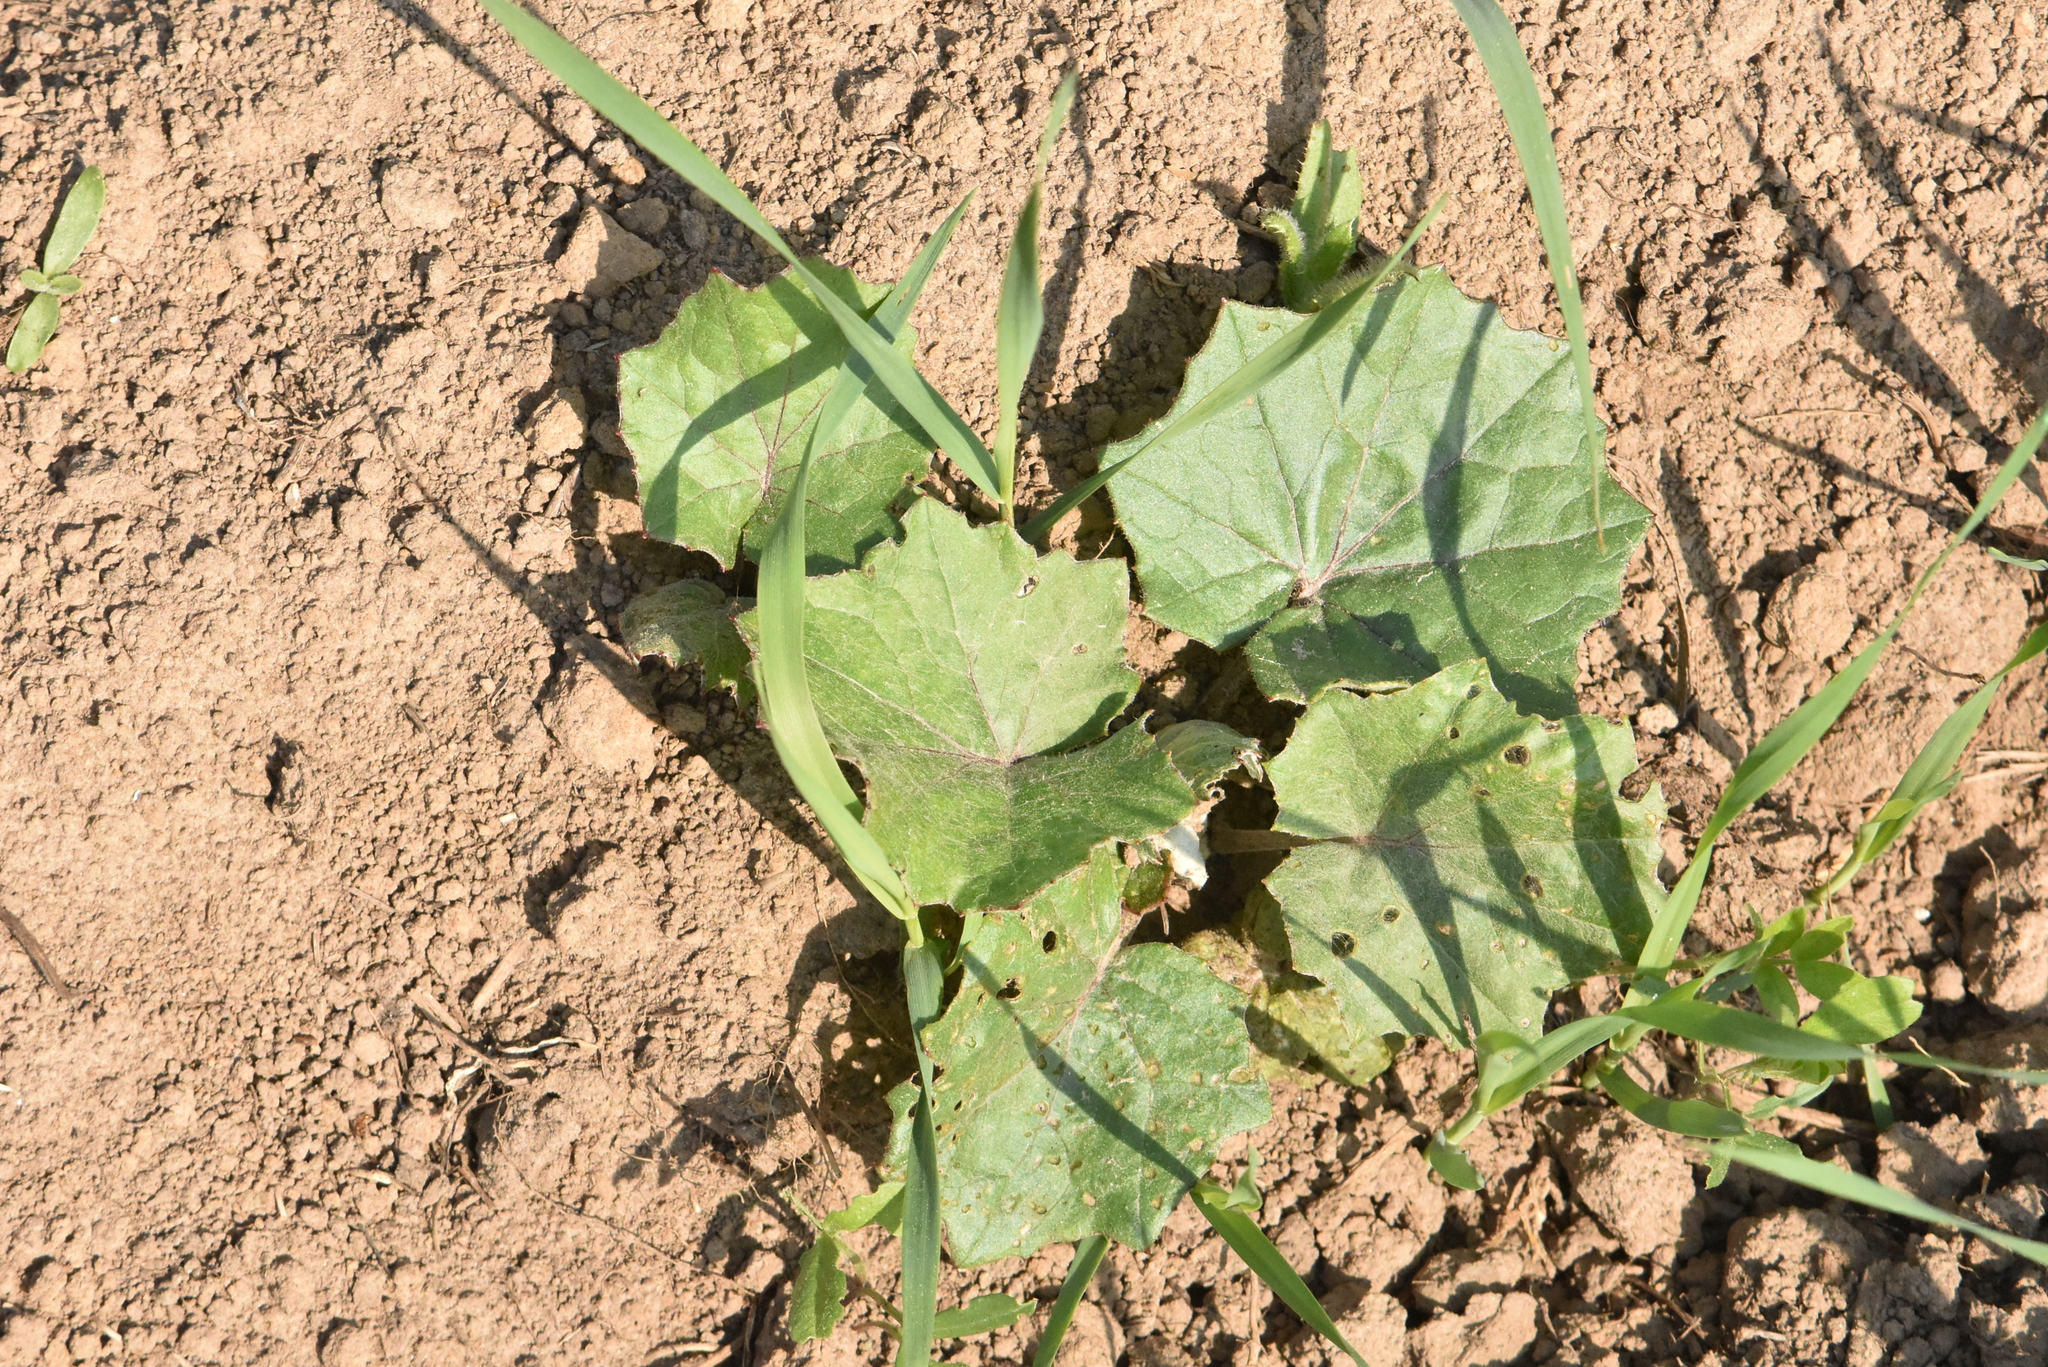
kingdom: Plantae
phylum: Tracheophyta
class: Magnoliopsida
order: Asterales
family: Asteraceae
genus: Tussilago
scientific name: Tussilago farfara
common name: Coltsfoot
